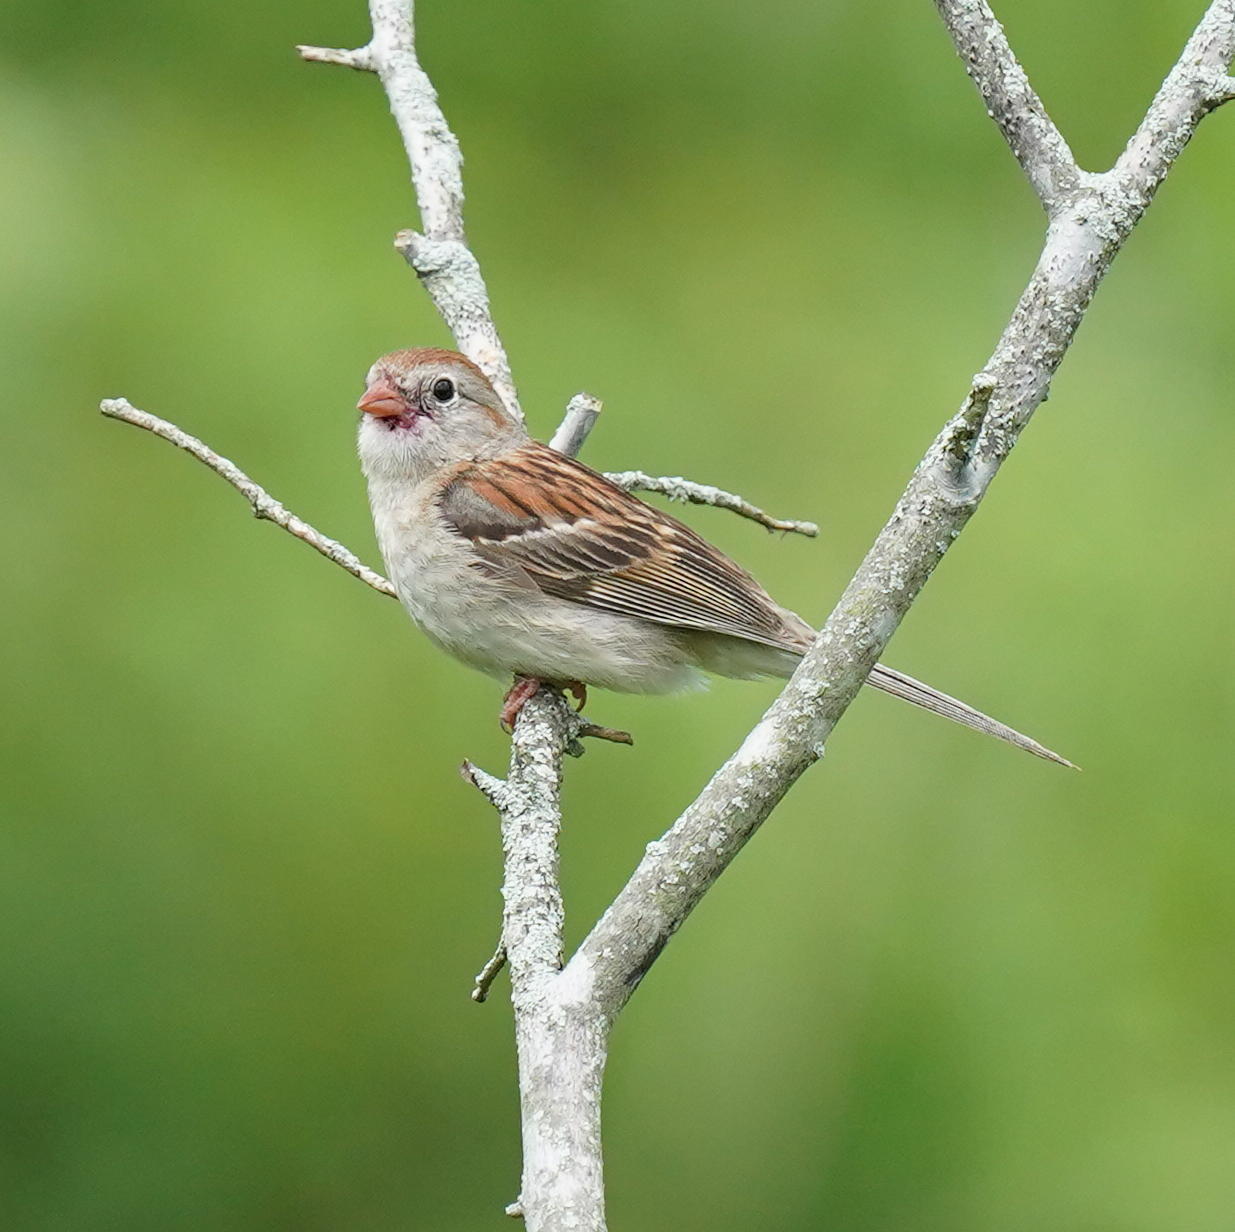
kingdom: Animalia
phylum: Chordata
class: Aves
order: Passeriformes
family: Passerellidae
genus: Spizella
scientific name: Spizella pusilla
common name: Field sparrow
